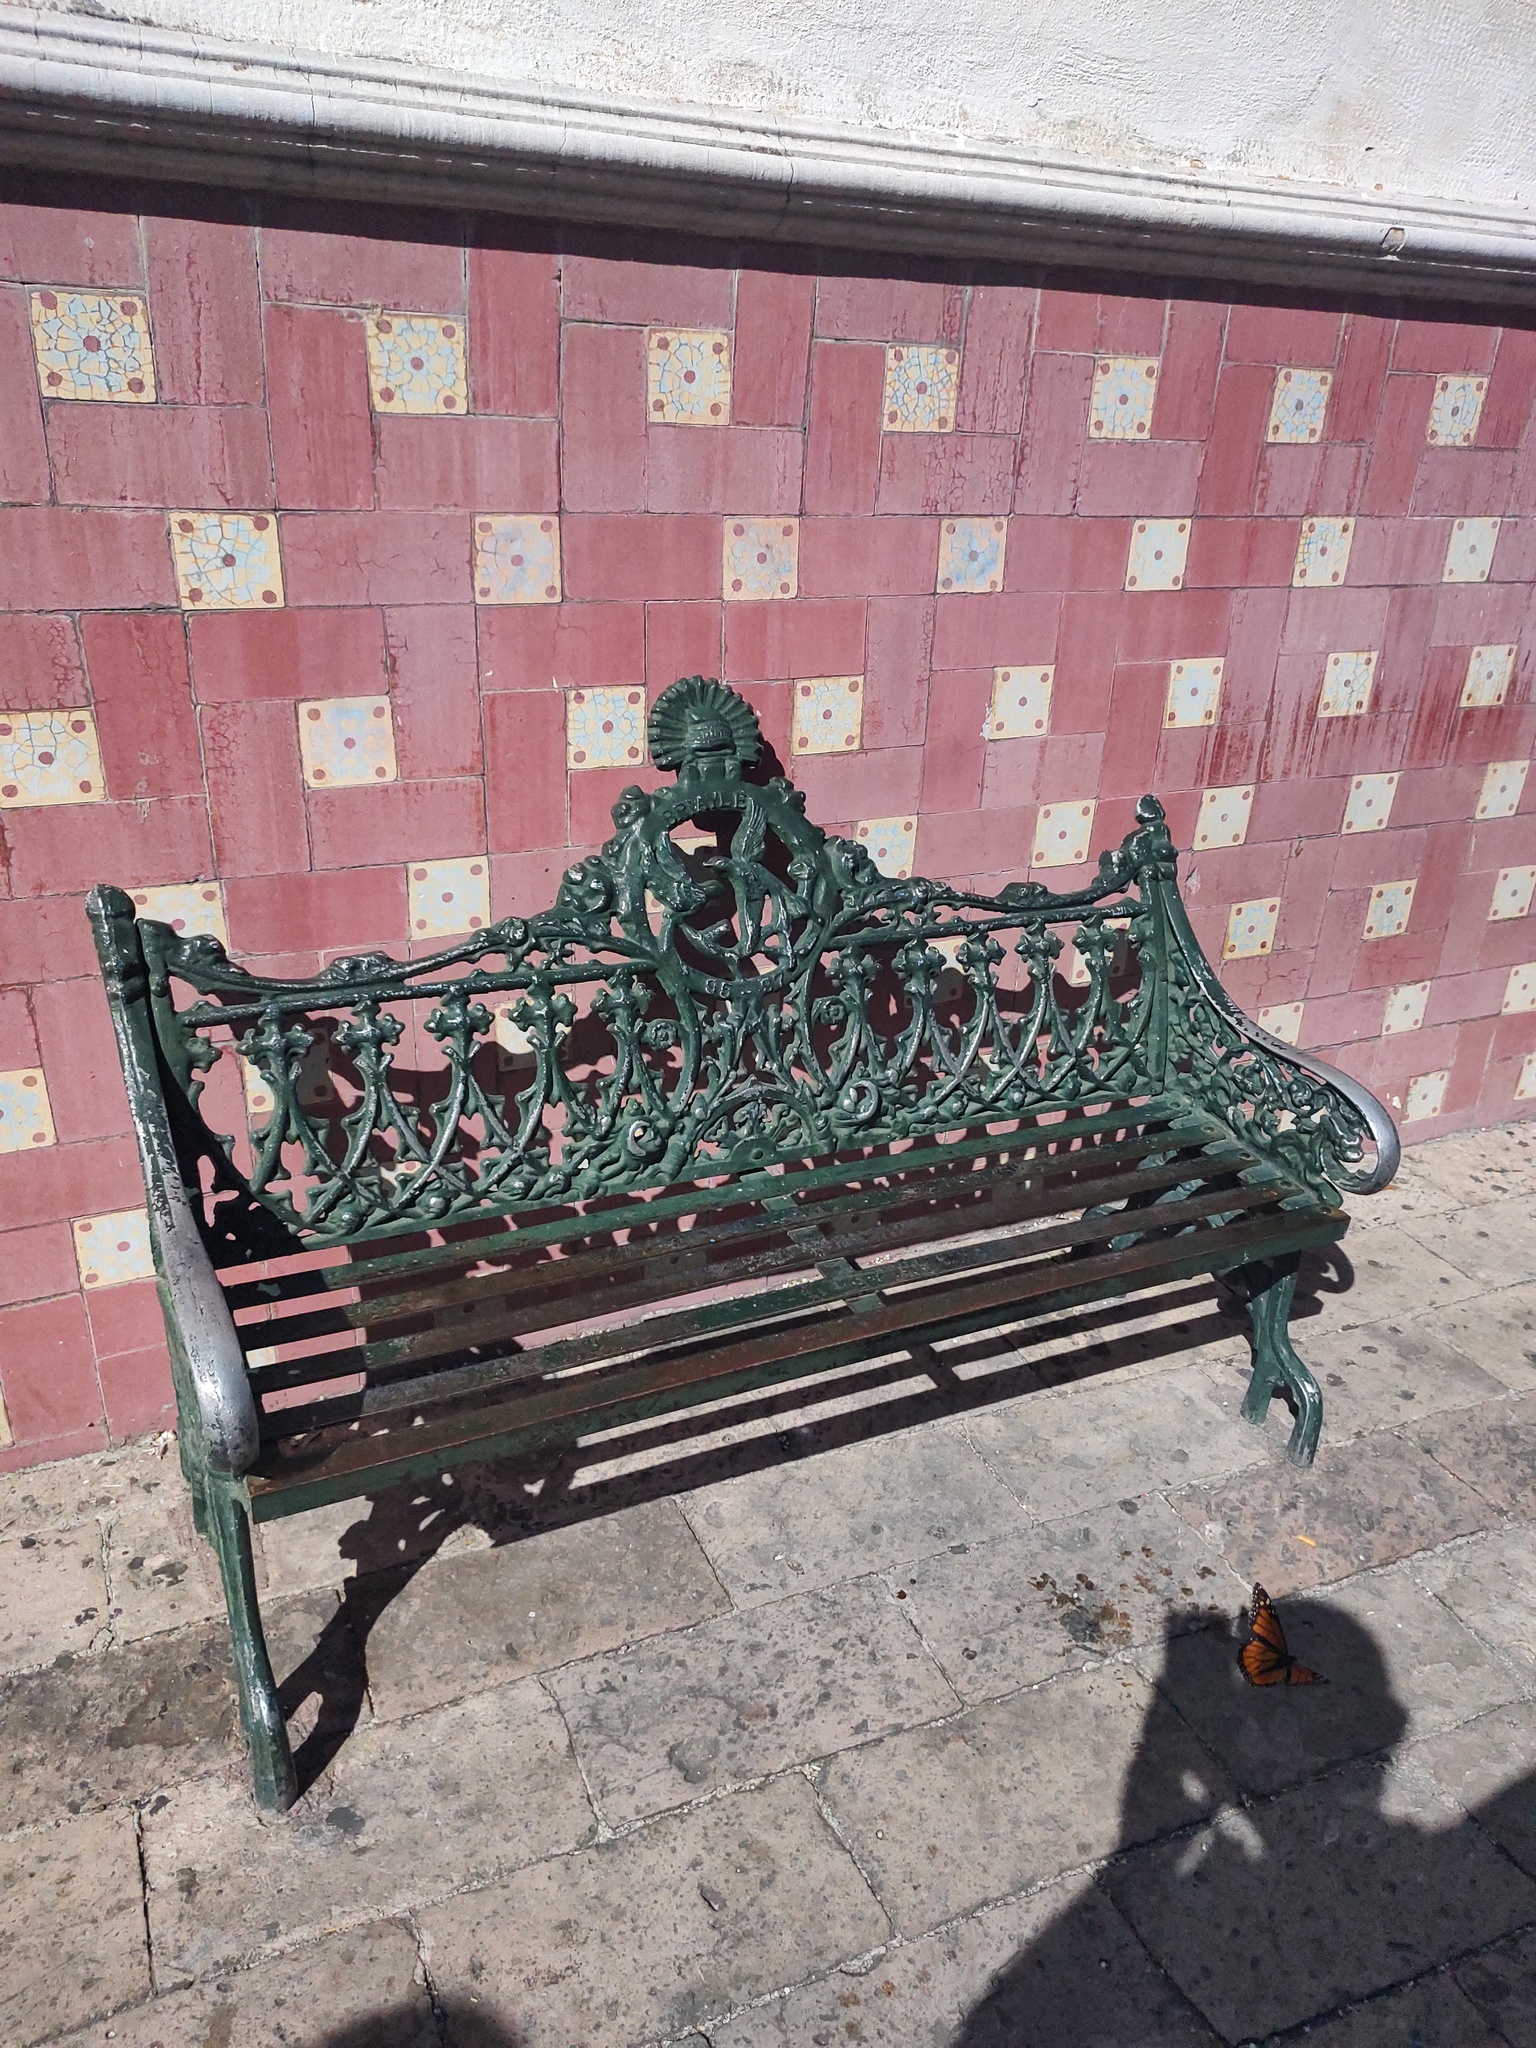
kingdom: Animalia
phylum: Arthropoda
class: Insecta
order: Lepidoptera
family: Nymphalidae
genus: Danaus
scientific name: Danaus plexippus
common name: Monarch
